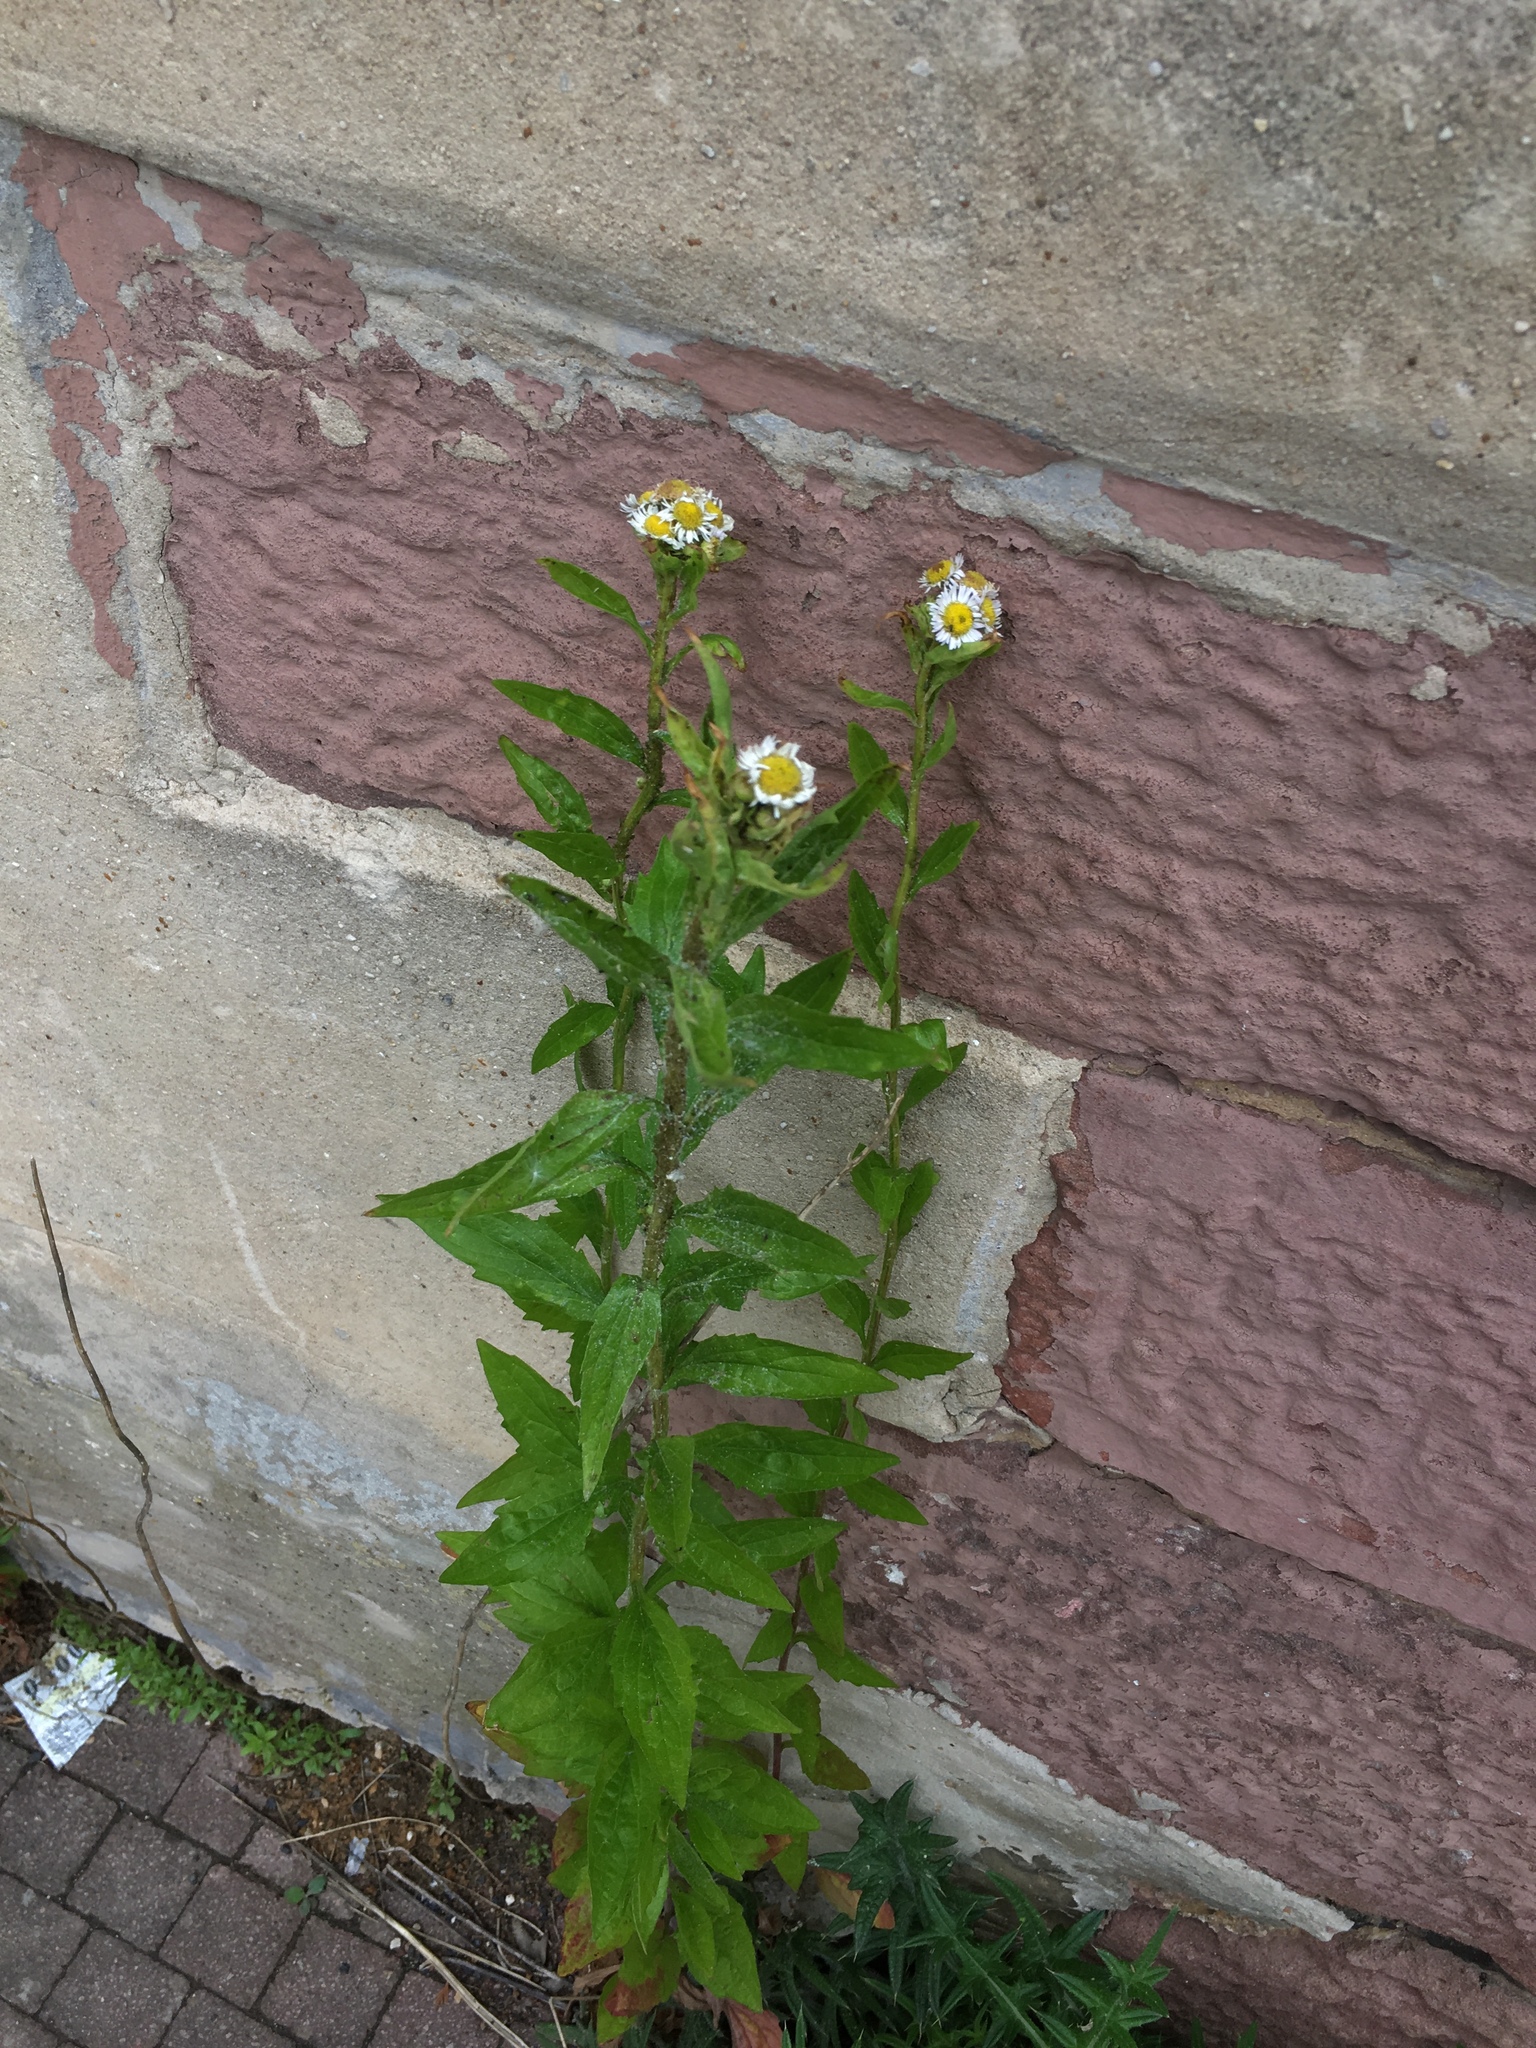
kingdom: Plantae
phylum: Tracheophyta
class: Magnoliopsida
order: Asterales
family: Asteraceae
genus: Erigeron
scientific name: Erigeron annuus
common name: Tall fleabane
